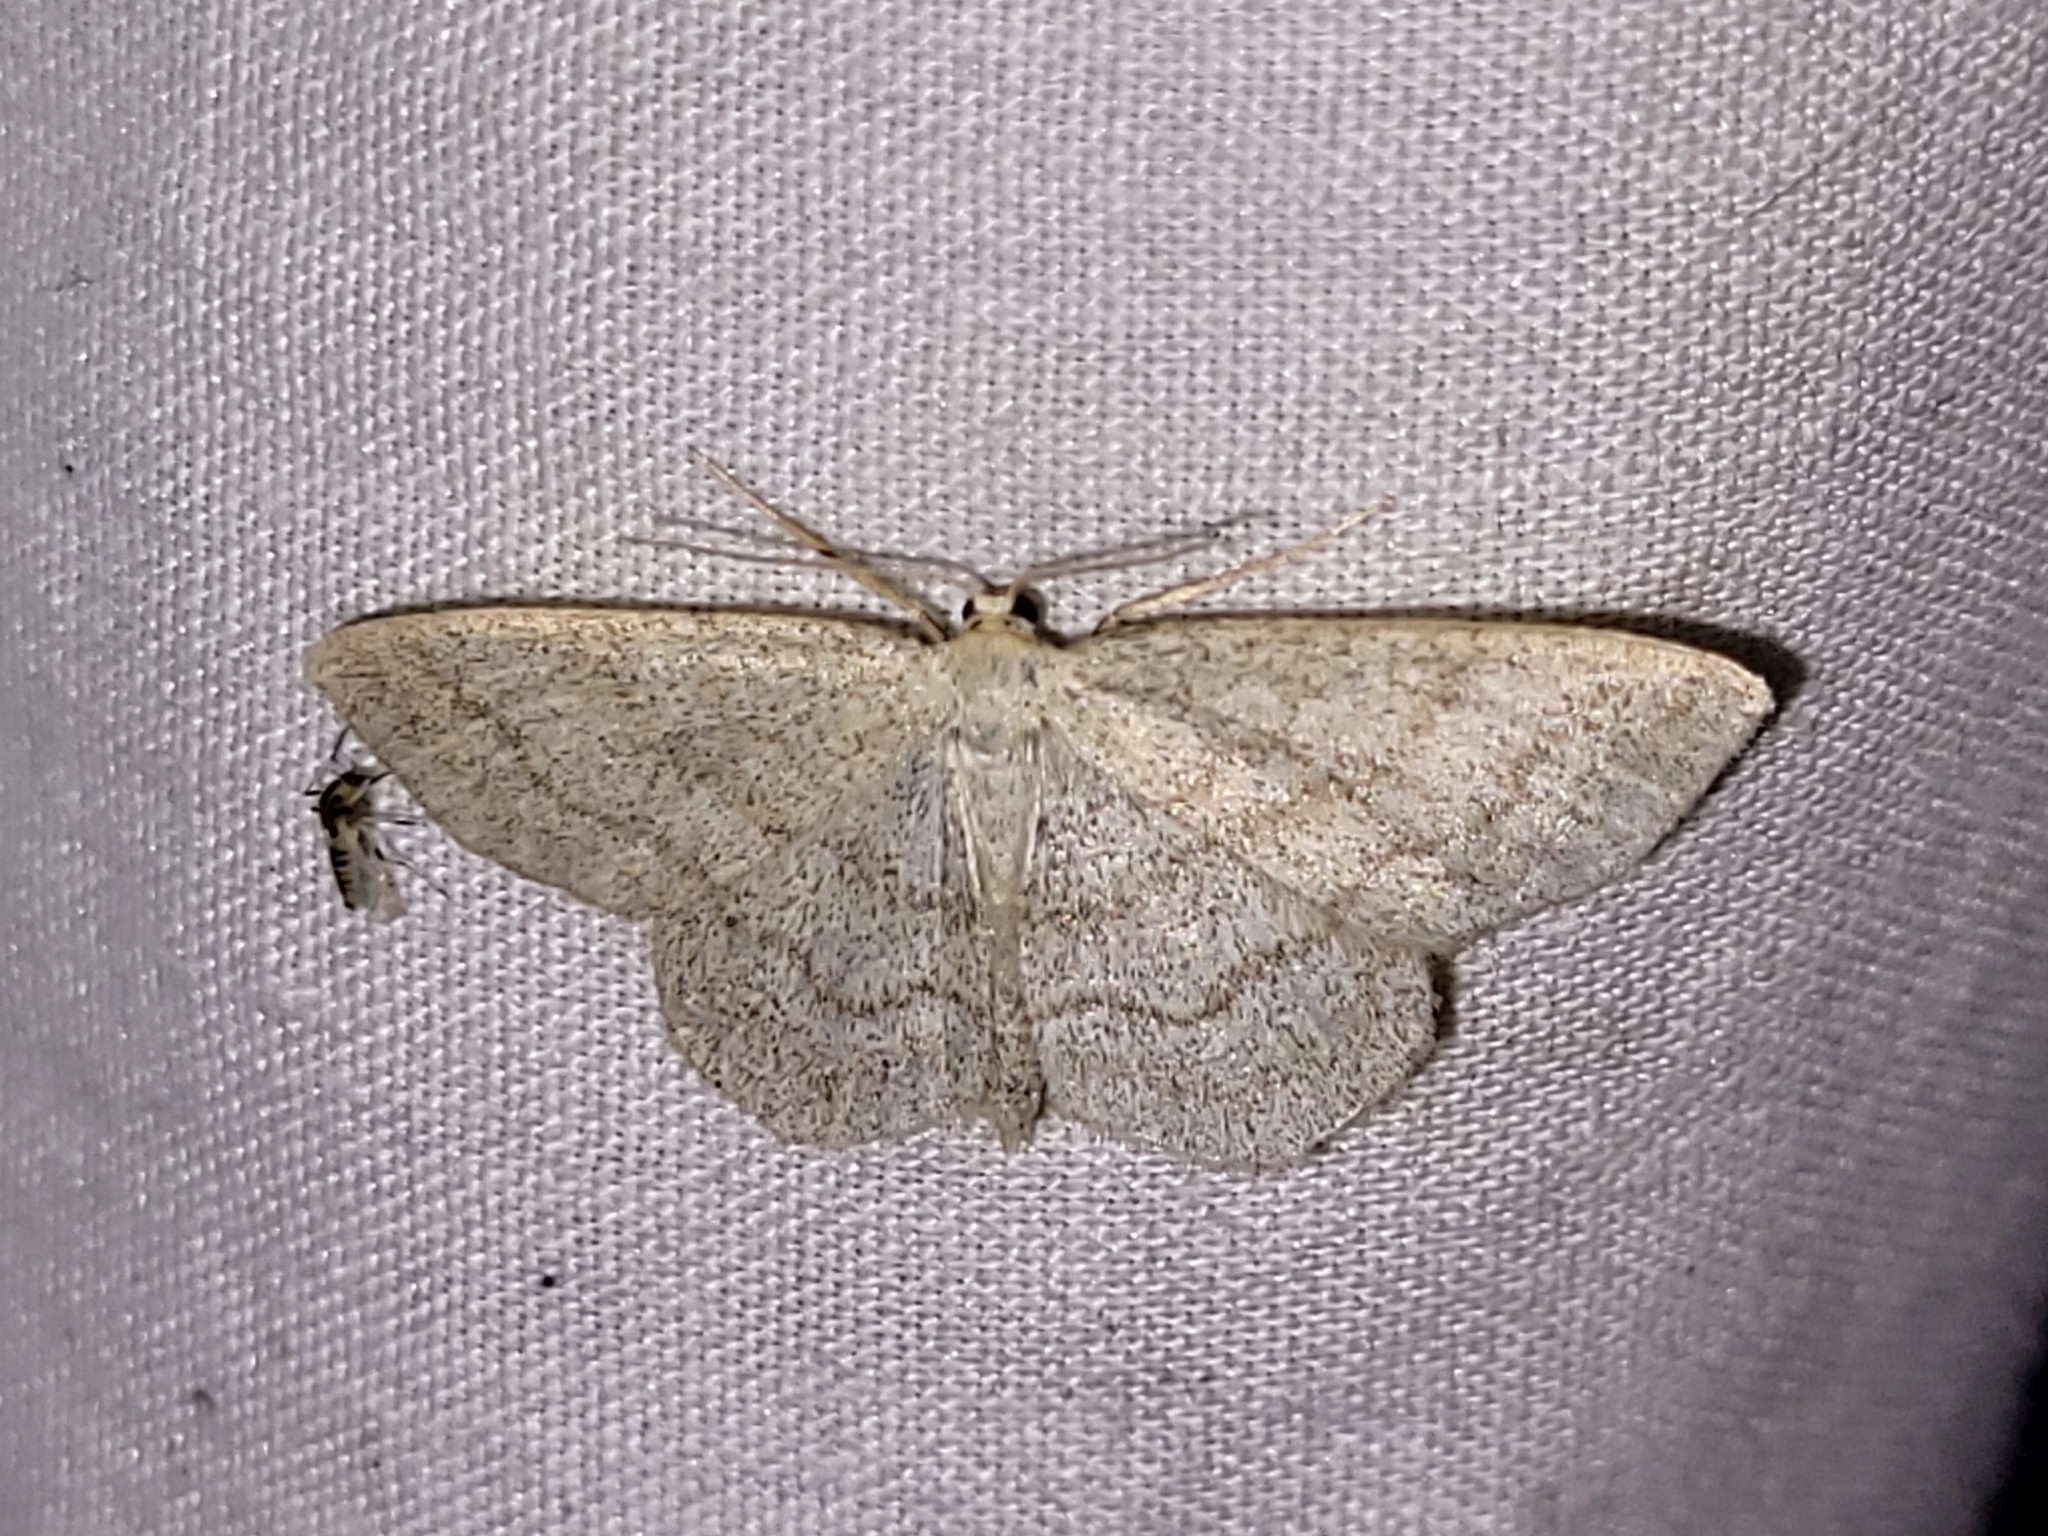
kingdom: Animalia
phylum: Arthropoda
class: Insecta
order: Lepidoptera
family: Geometridae
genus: Scopula
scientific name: Scopula junctaria
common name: Simple wave
